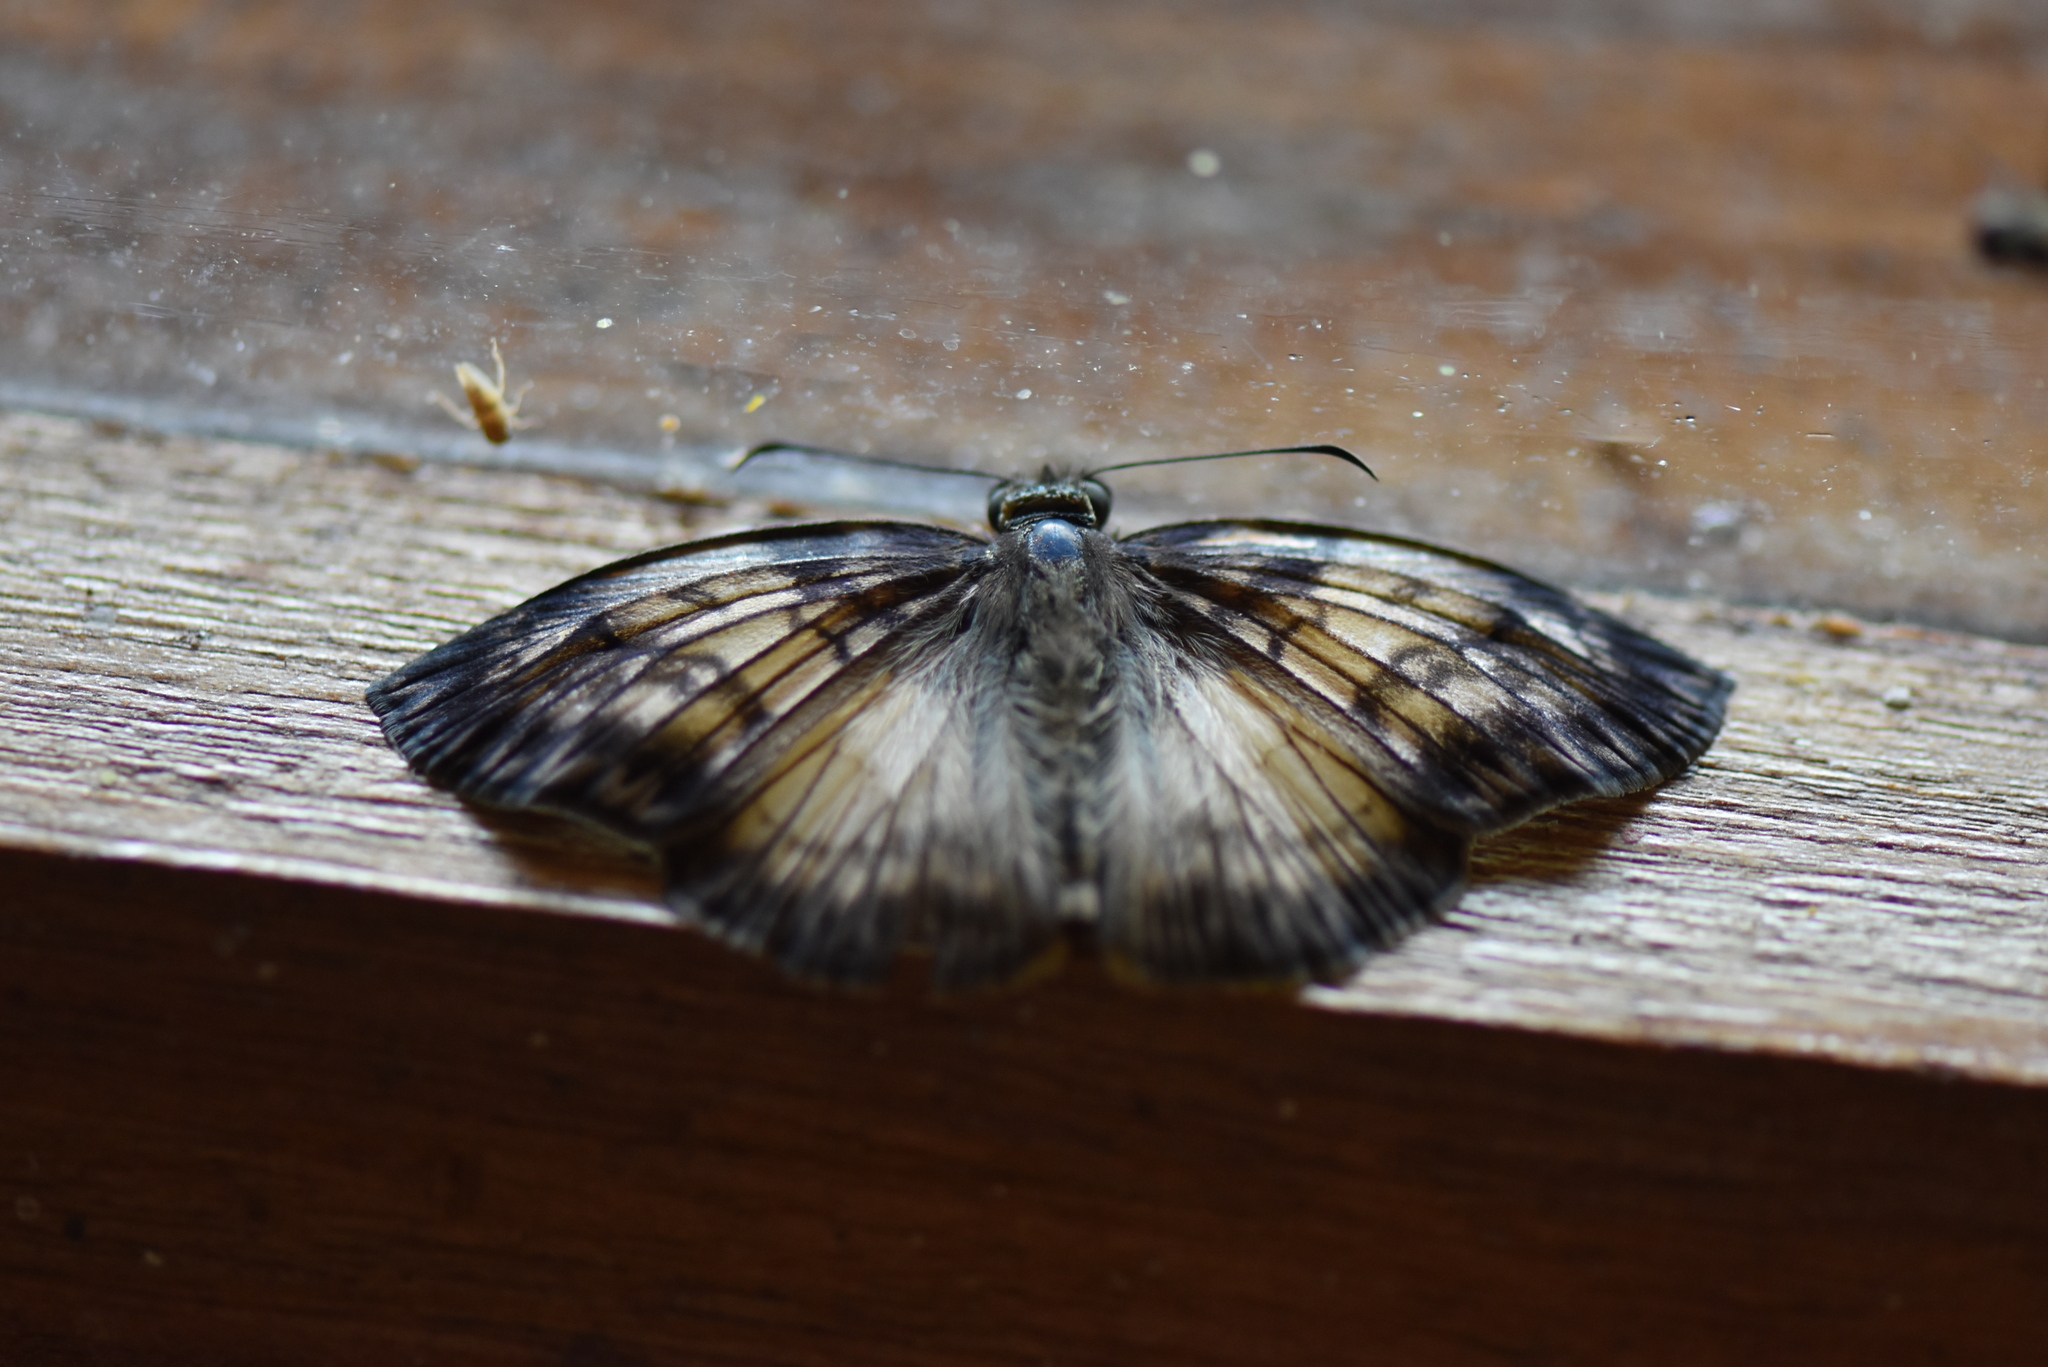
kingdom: Animalia
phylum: Arthropoda
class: Insecta
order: Lepidoptera
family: Hesperiidae
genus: Mylon
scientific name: Mylon maimon
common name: Common mylon
